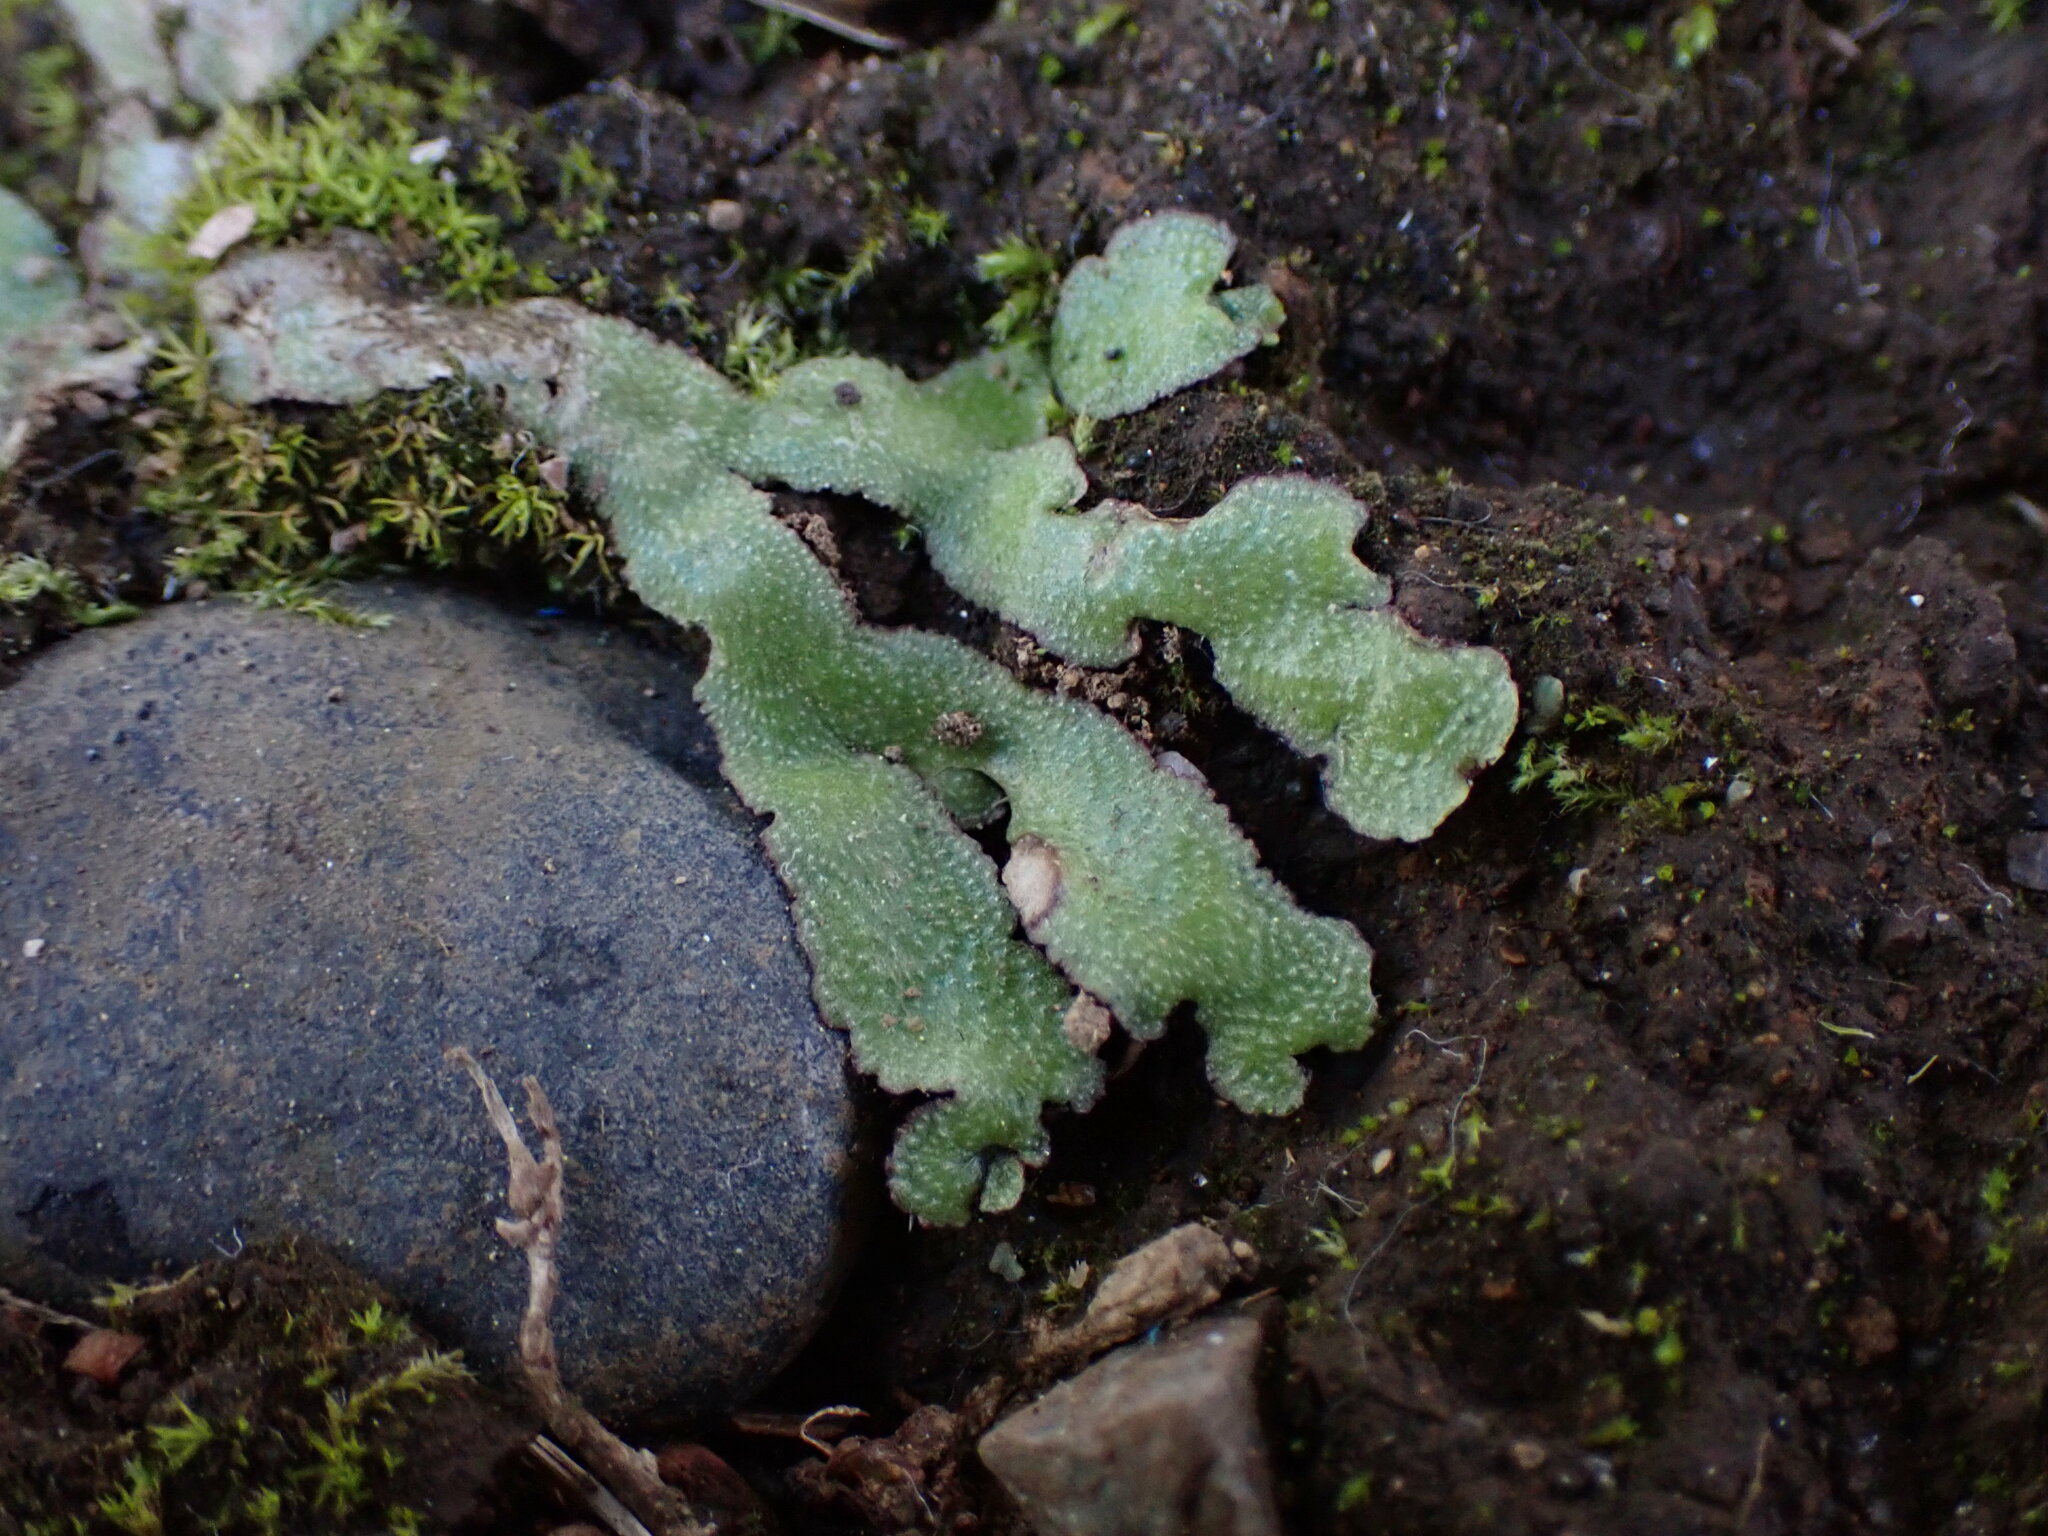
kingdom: Plantae
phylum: Marchantiophyta
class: Marchantiopsida
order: Marchantiales
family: Aytoniaceae
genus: Reboulia
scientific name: Reboulia hemisphaerica
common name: Purple-margined liverwort
